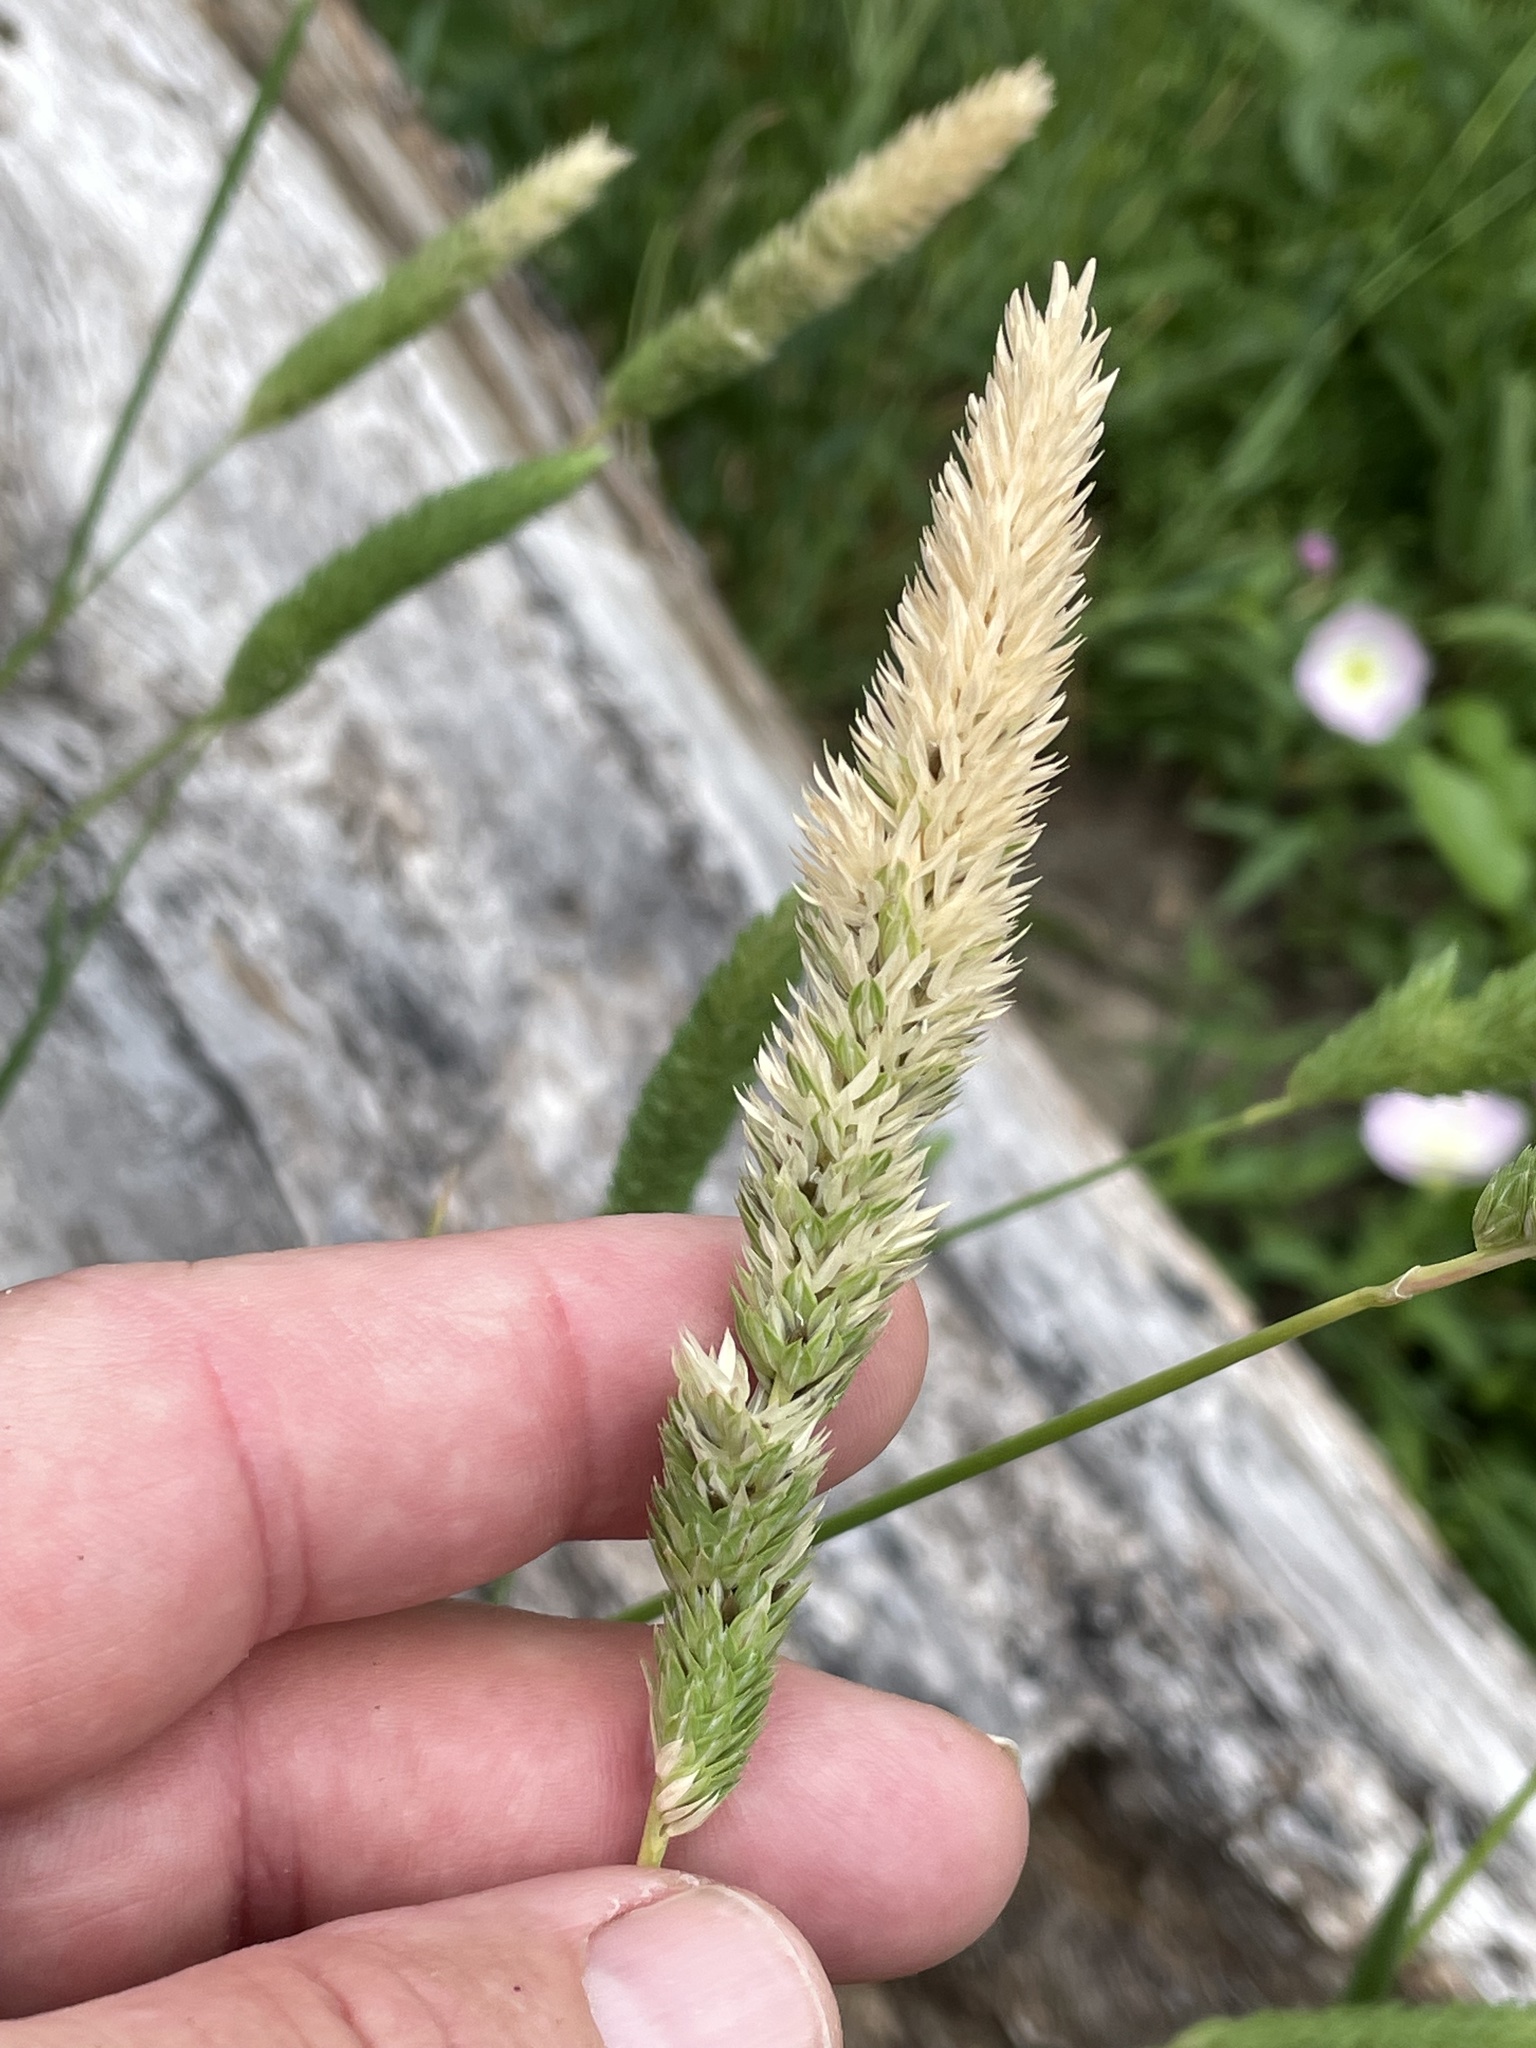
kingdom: Plantae
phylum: Tracheophyta
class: Liliopsida
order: Poales
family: Poaceae
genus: Phalaris
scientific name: Phalaris caroliniana
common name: May grass
